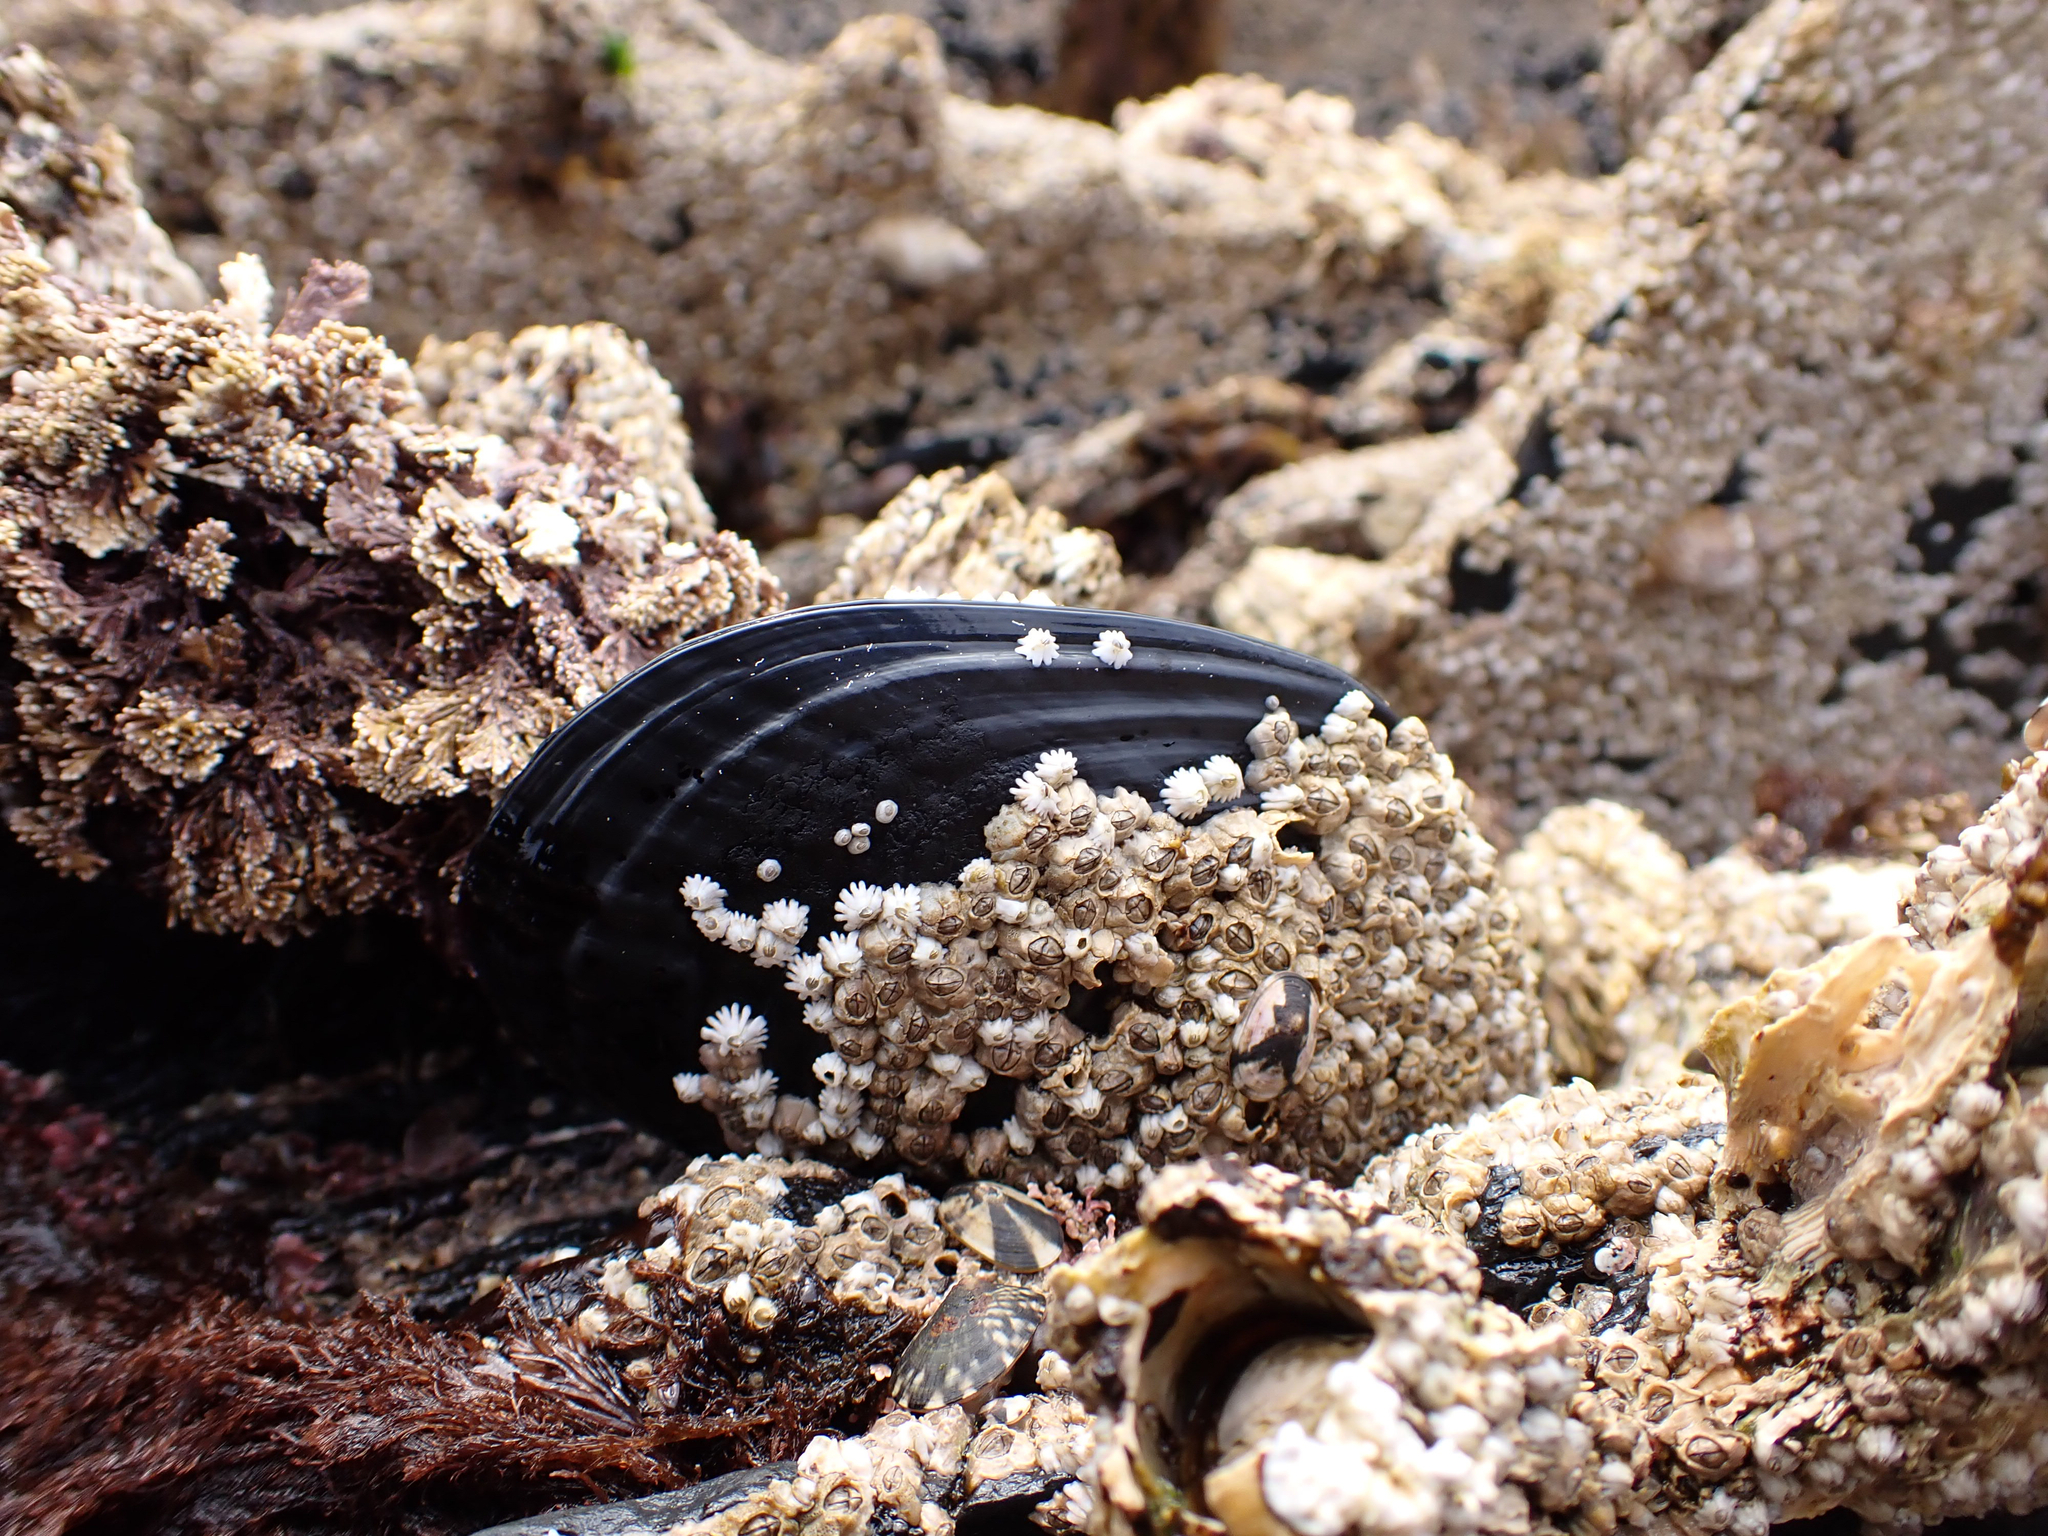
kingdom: Animalia
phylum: Mollusca
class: Bivalvia
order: Mytilida
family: Mytilidae
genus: Mytilus
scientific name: Mytilus californianus
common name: California mussel
